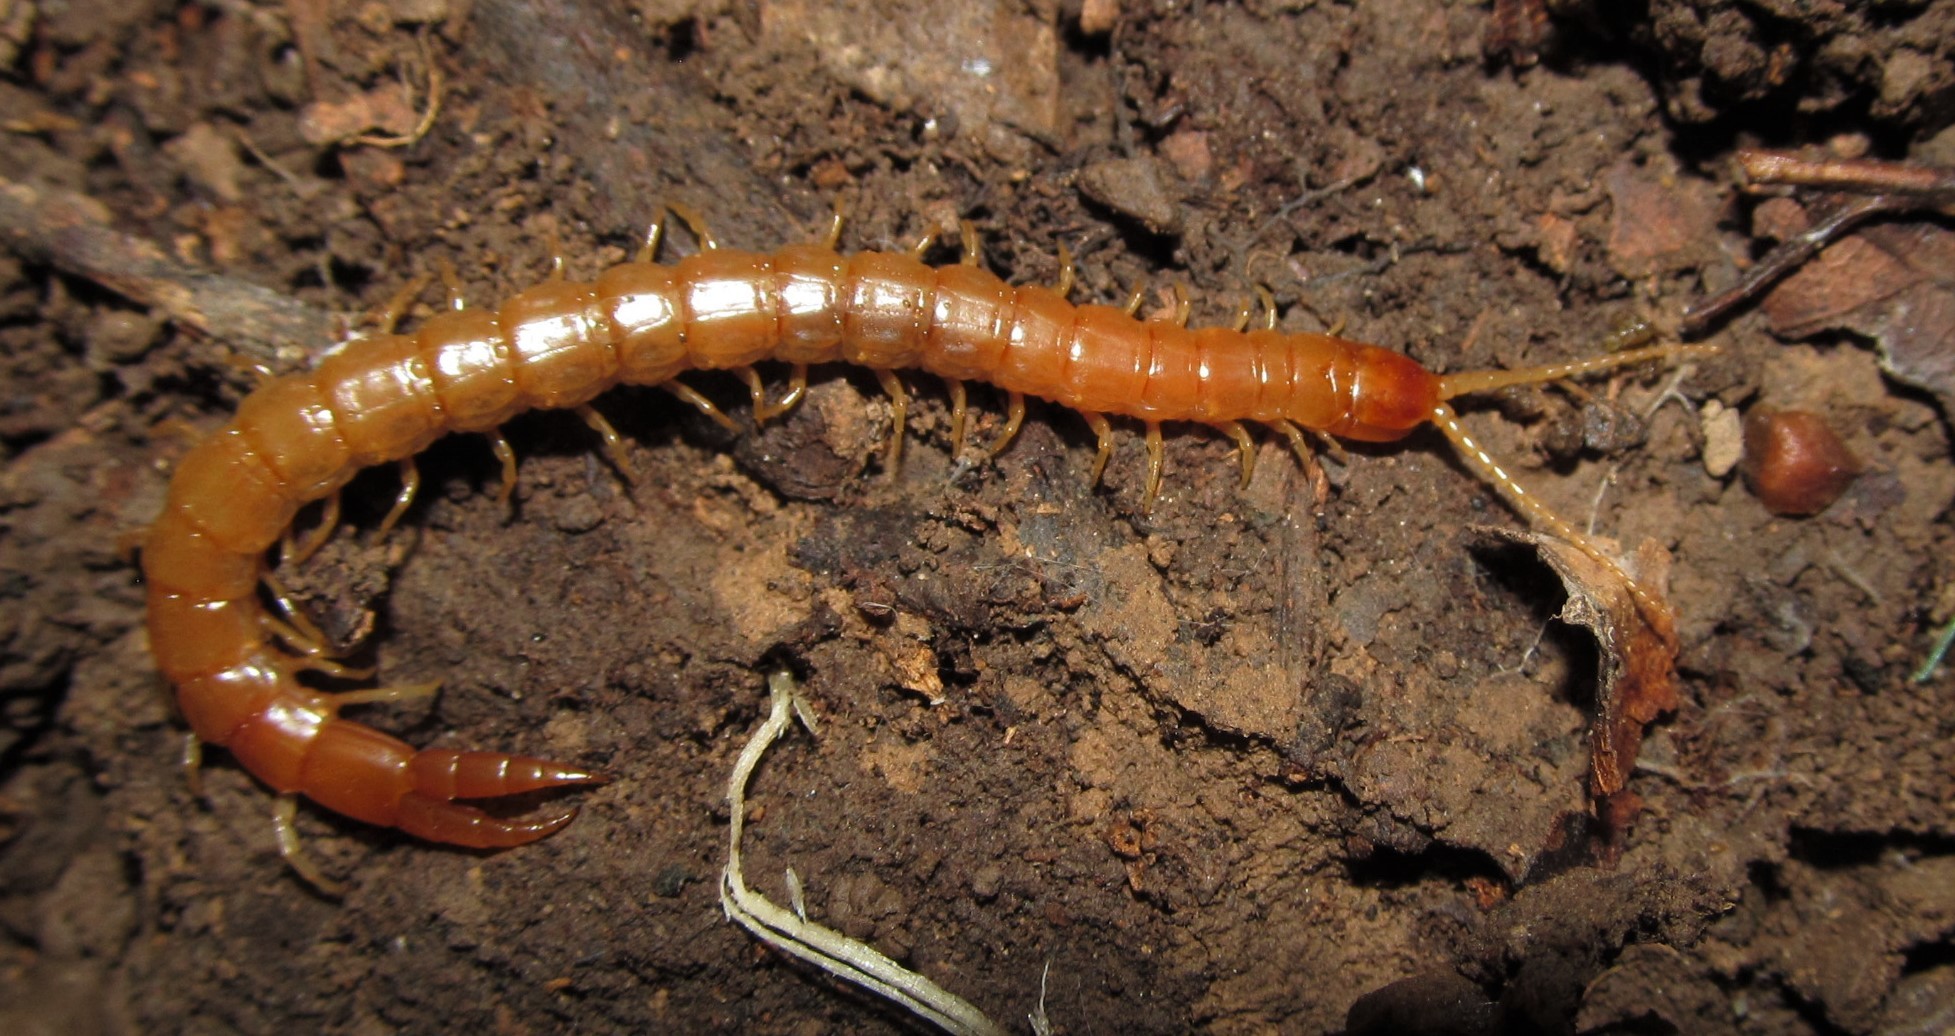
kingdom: Animalia
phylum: Arthropoda
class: Chilopoda
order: Scolopendromorpha
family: Cryptopidae
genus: Theatops
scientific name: Theatops spinicaudus
